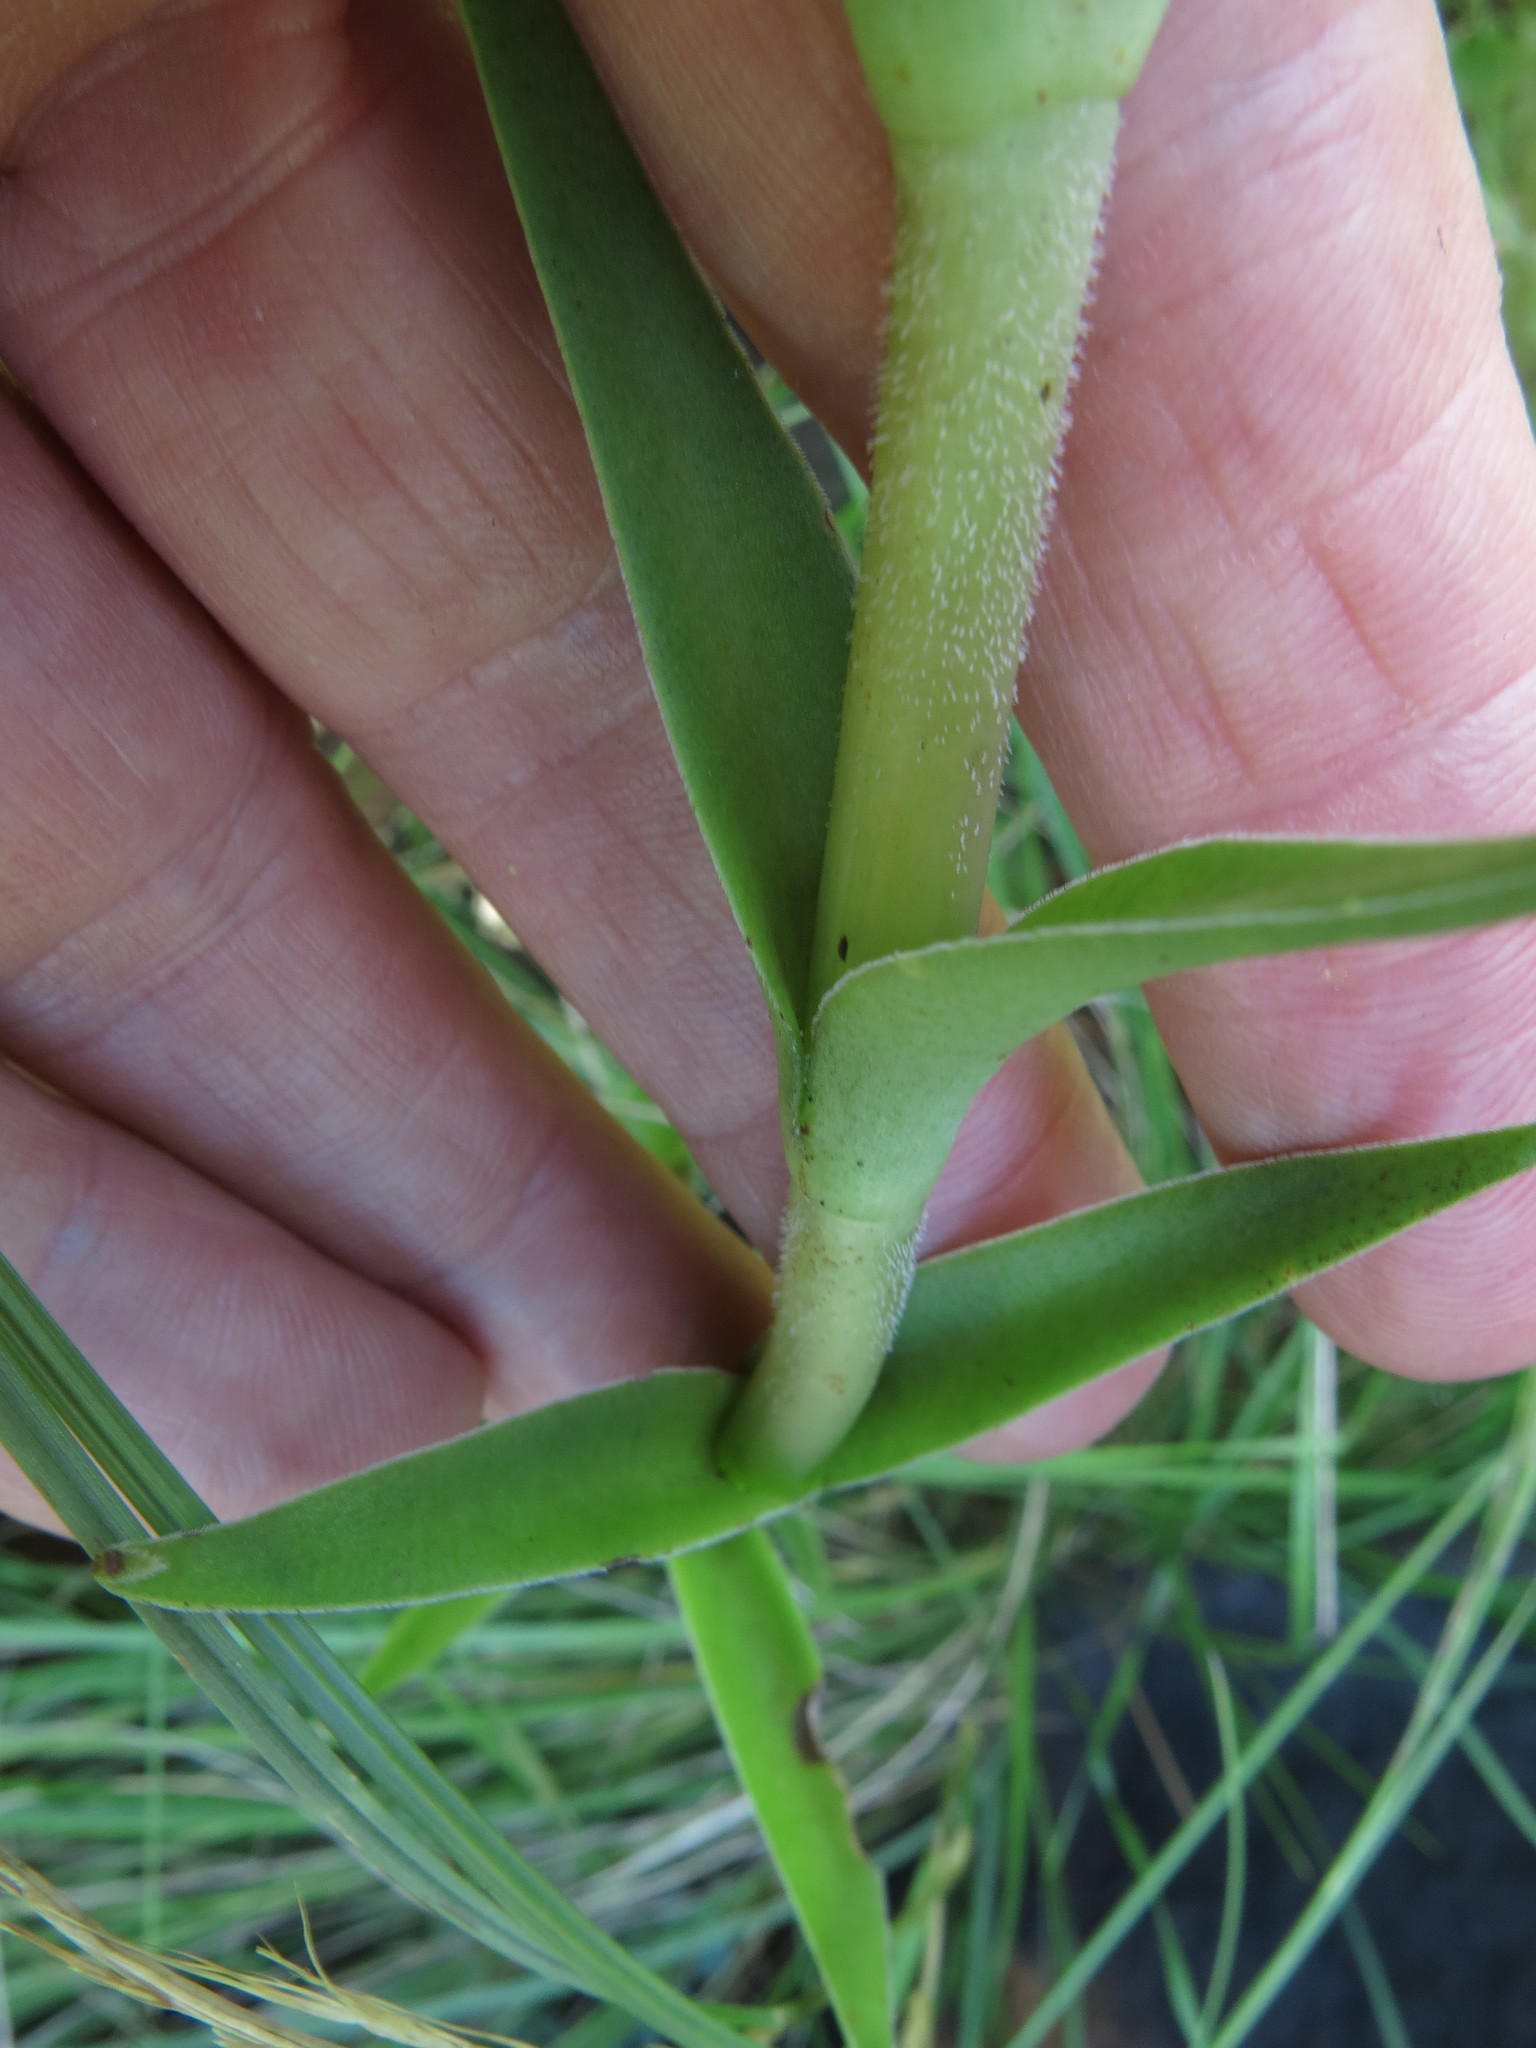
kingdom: Plantae
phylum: Tracheophyta
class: Magnoliopsida
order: Saxifragales
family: Crassulaceae
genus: Crassula
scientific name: Crassula alba
